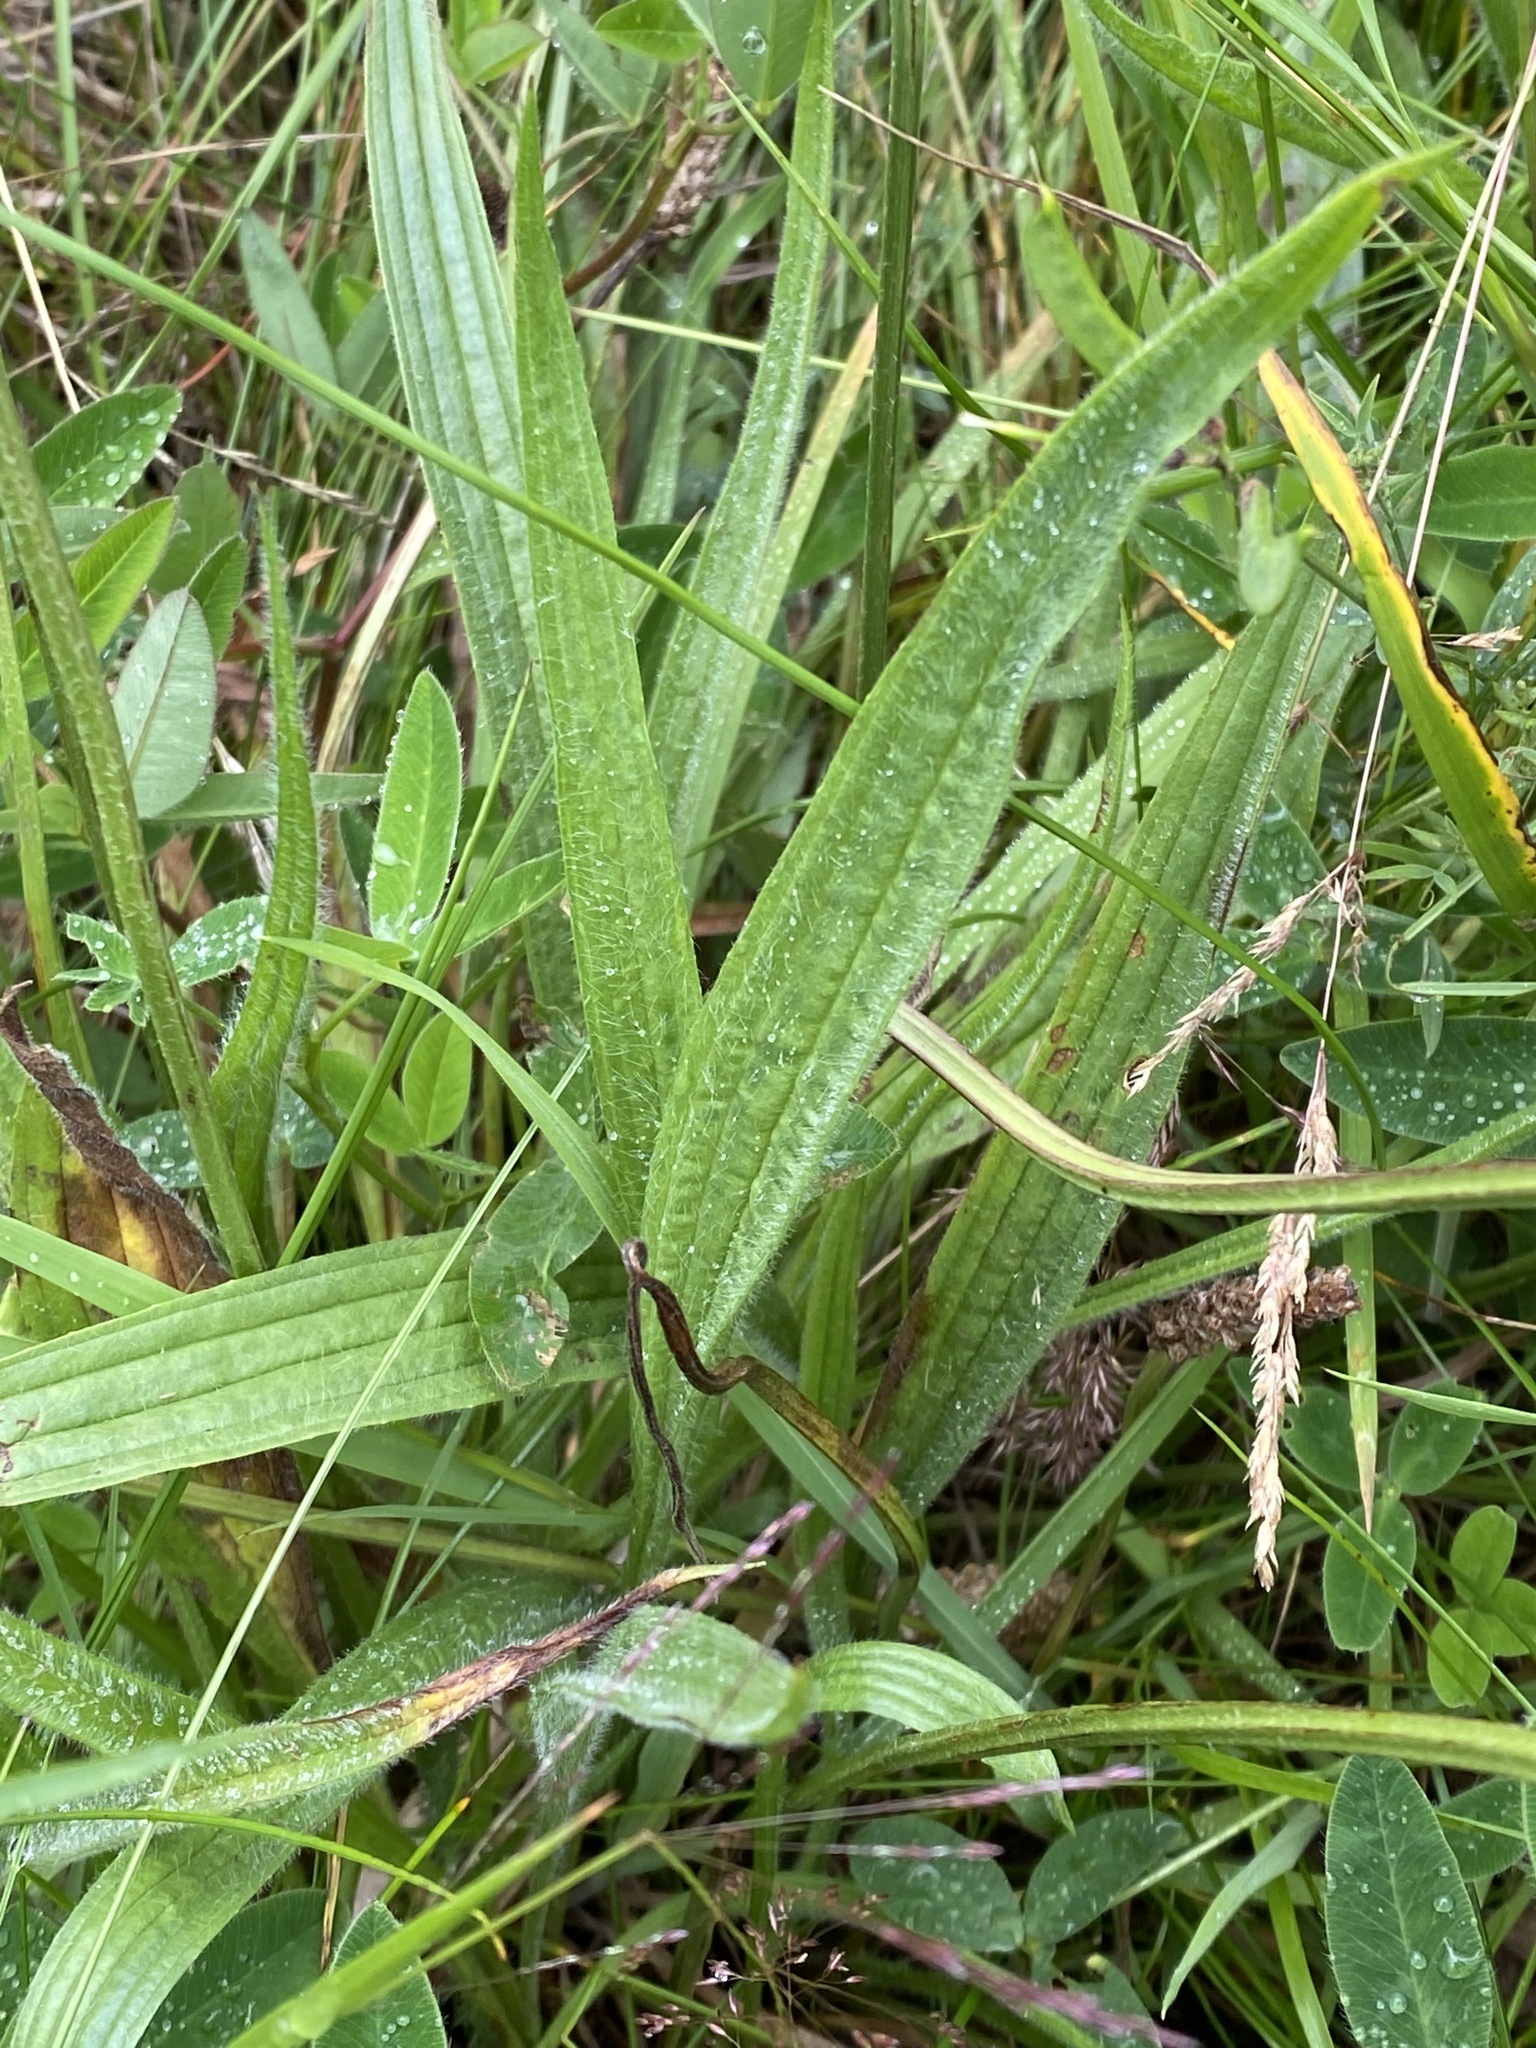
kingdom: Plantae
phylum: Tracheophyta
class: Magnoliopsida
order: Lamiales
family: Plantaginaceae
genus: Plantago
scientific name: Plantago lanceolata
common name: Ribwort plantain
